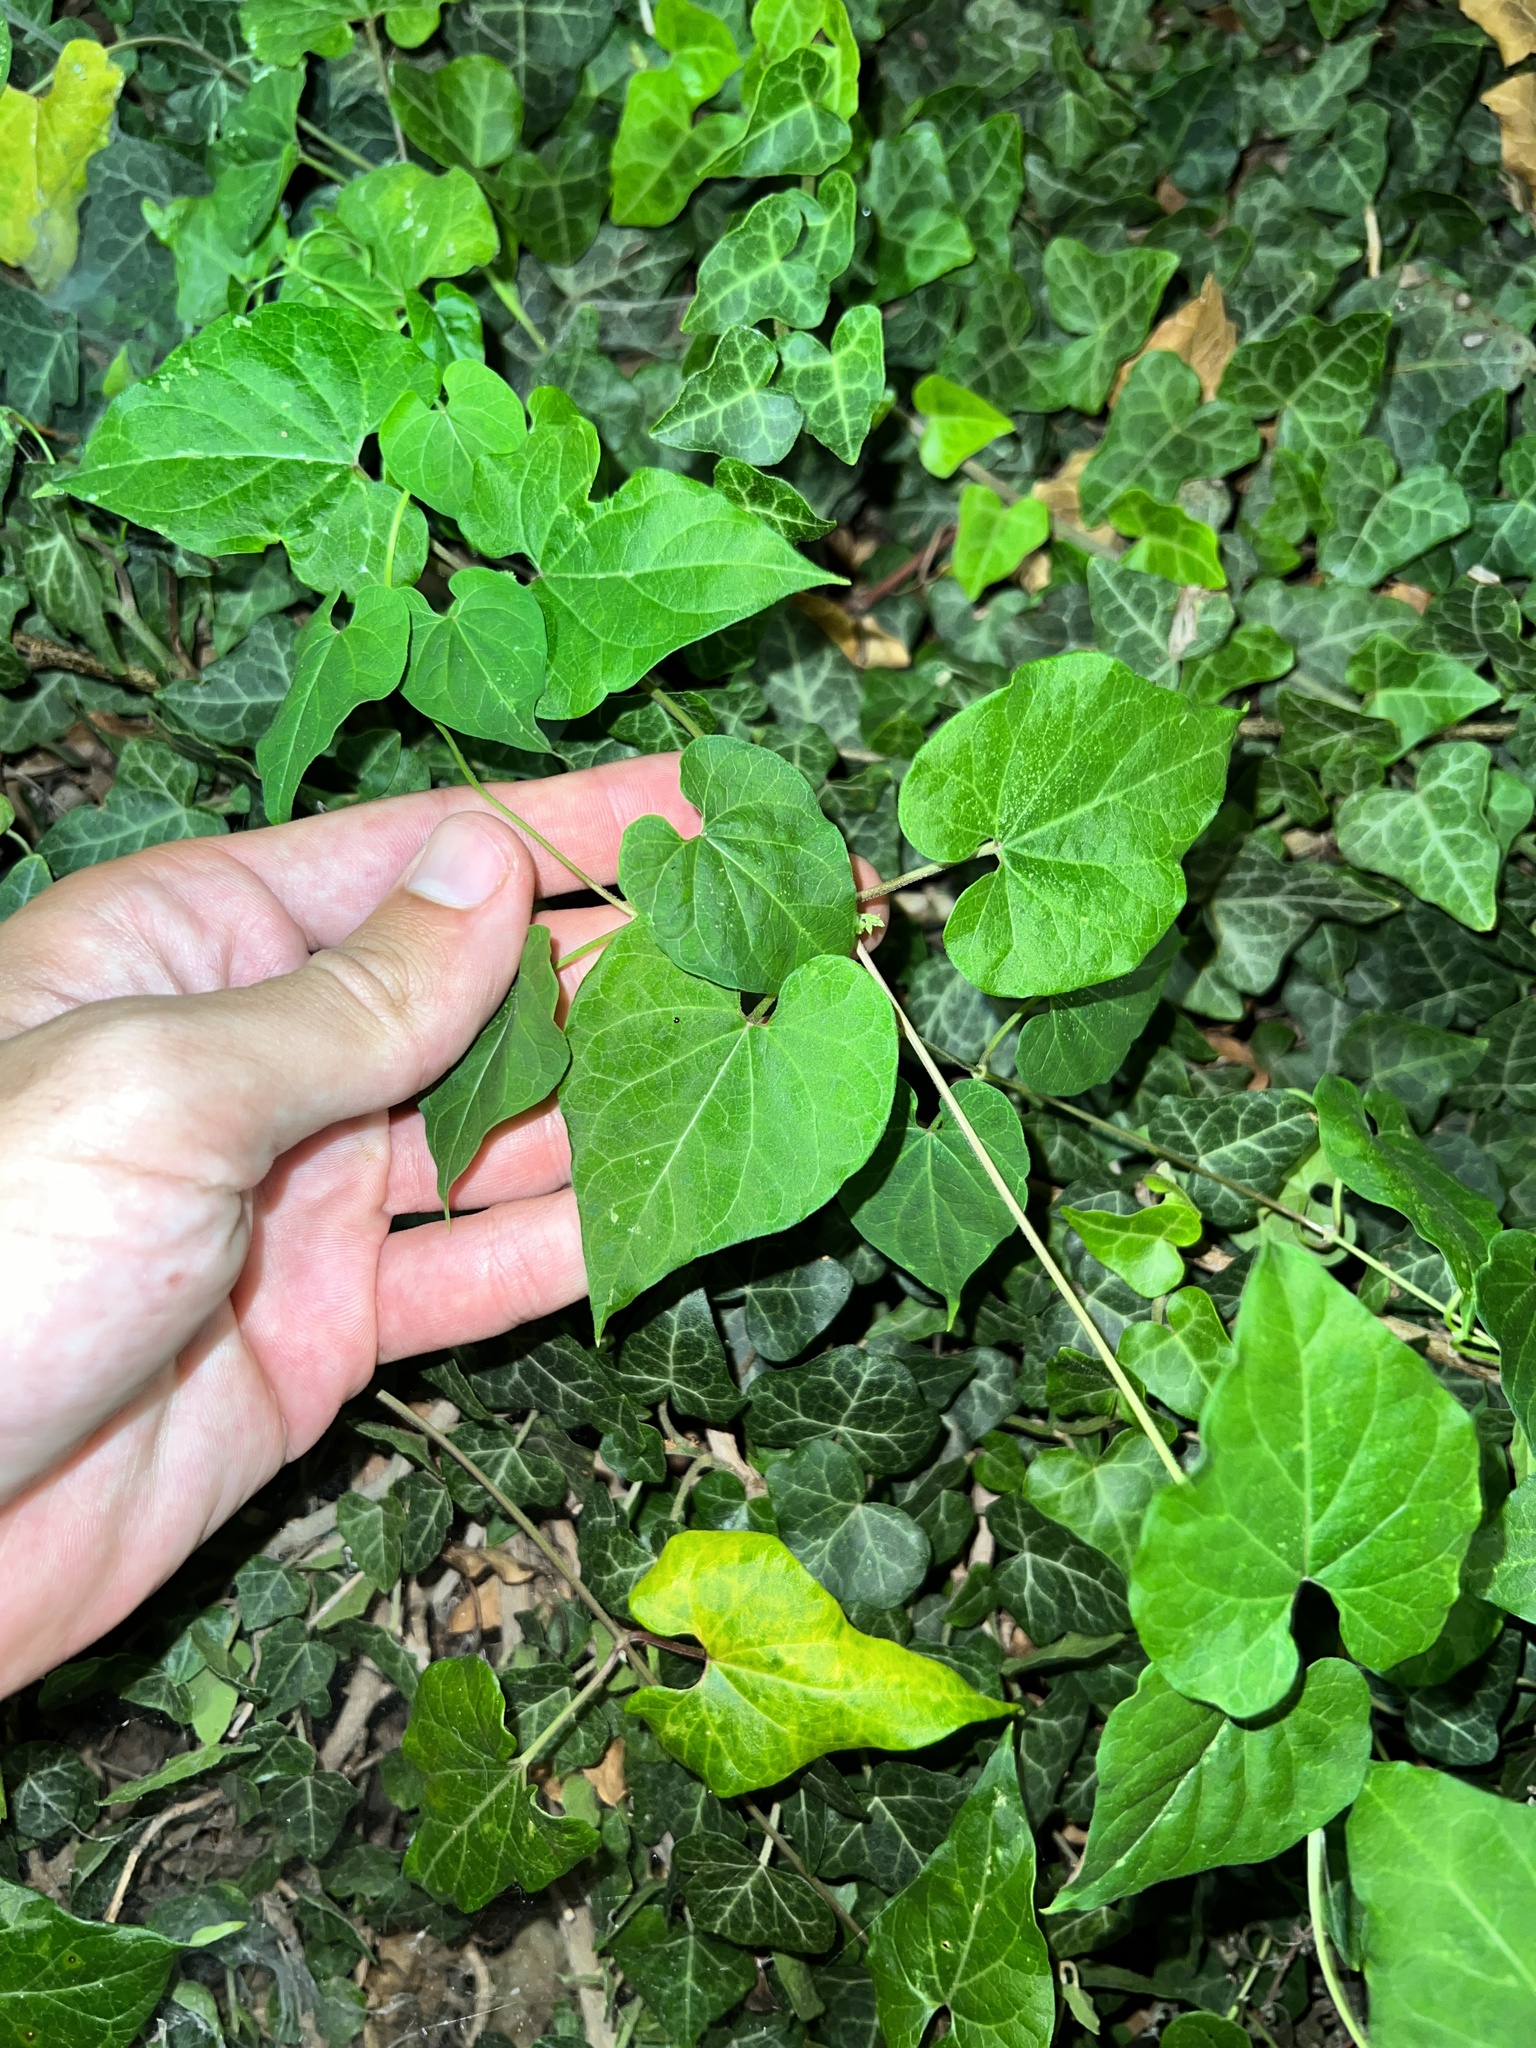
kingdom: Plantae
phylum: Tracheophyta
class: Magnoliopsida
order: Gentianales
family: Apocynaceae
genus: Cynanchum
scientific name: Cynanchum laeve
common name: Sandvine
